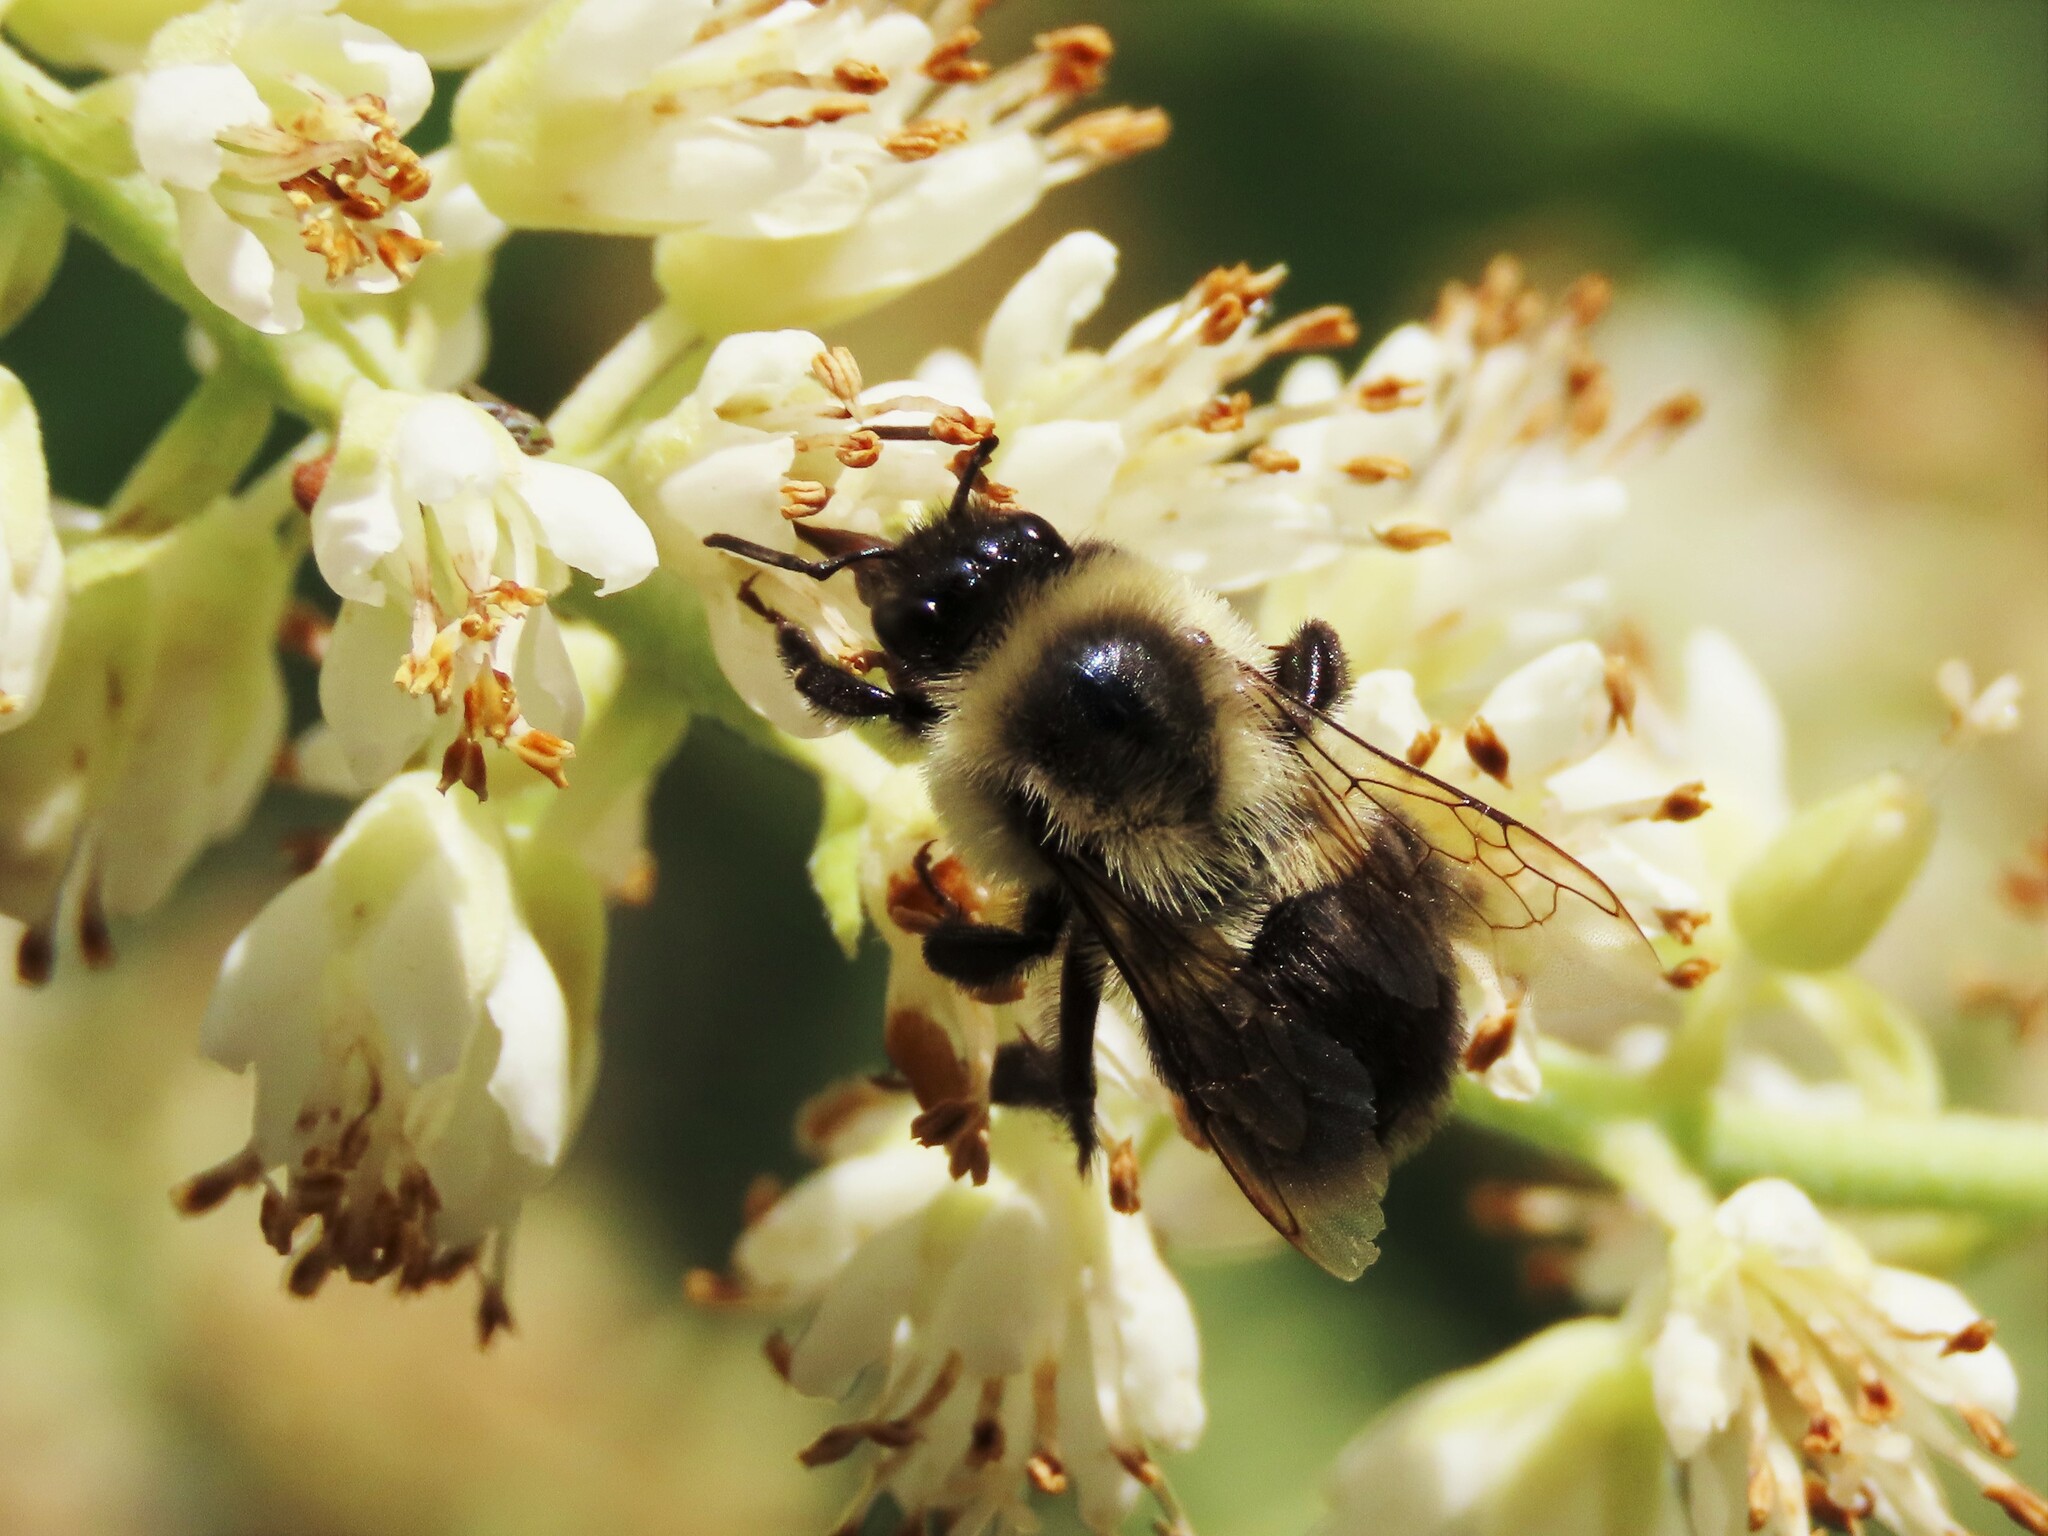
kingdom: Animalia
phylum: Arthropoda
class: Insecta
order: Hymenoptera
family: Apidae
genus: Bombus
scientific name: Bombus impatiens
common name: Common eastern bumble bee
